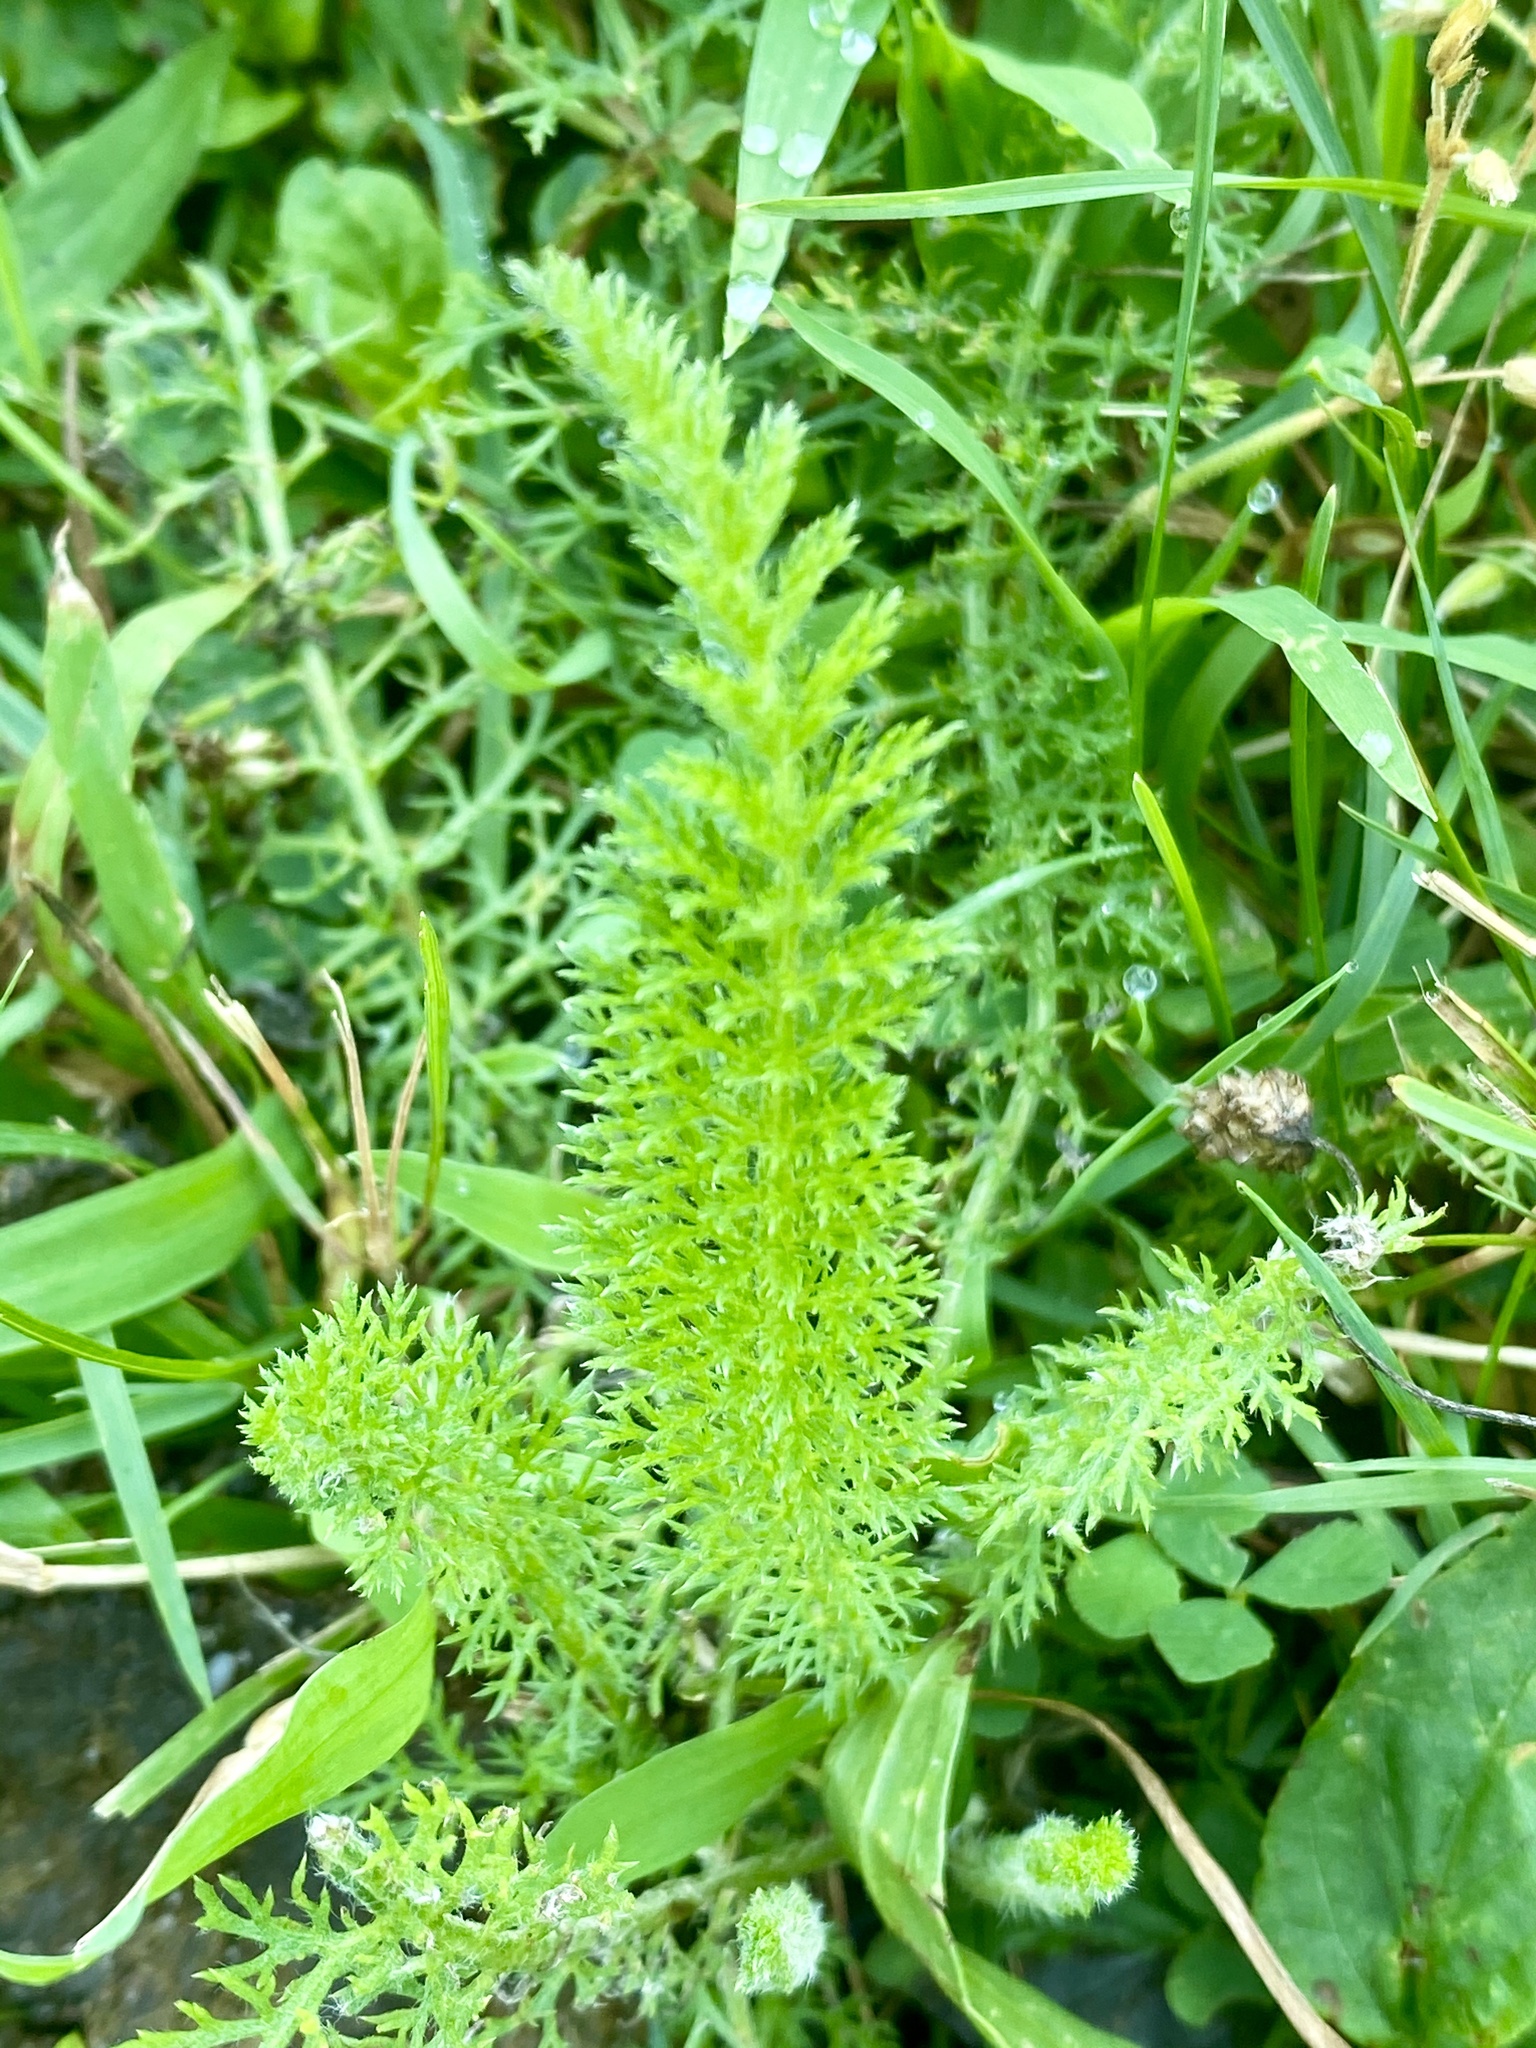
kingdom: Plantae
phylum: Tracheophyta
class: Magnoliopsida
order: Asterales
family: Asteraceae
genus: Achillea
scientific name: Achillea millefolium
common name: Yarrow
